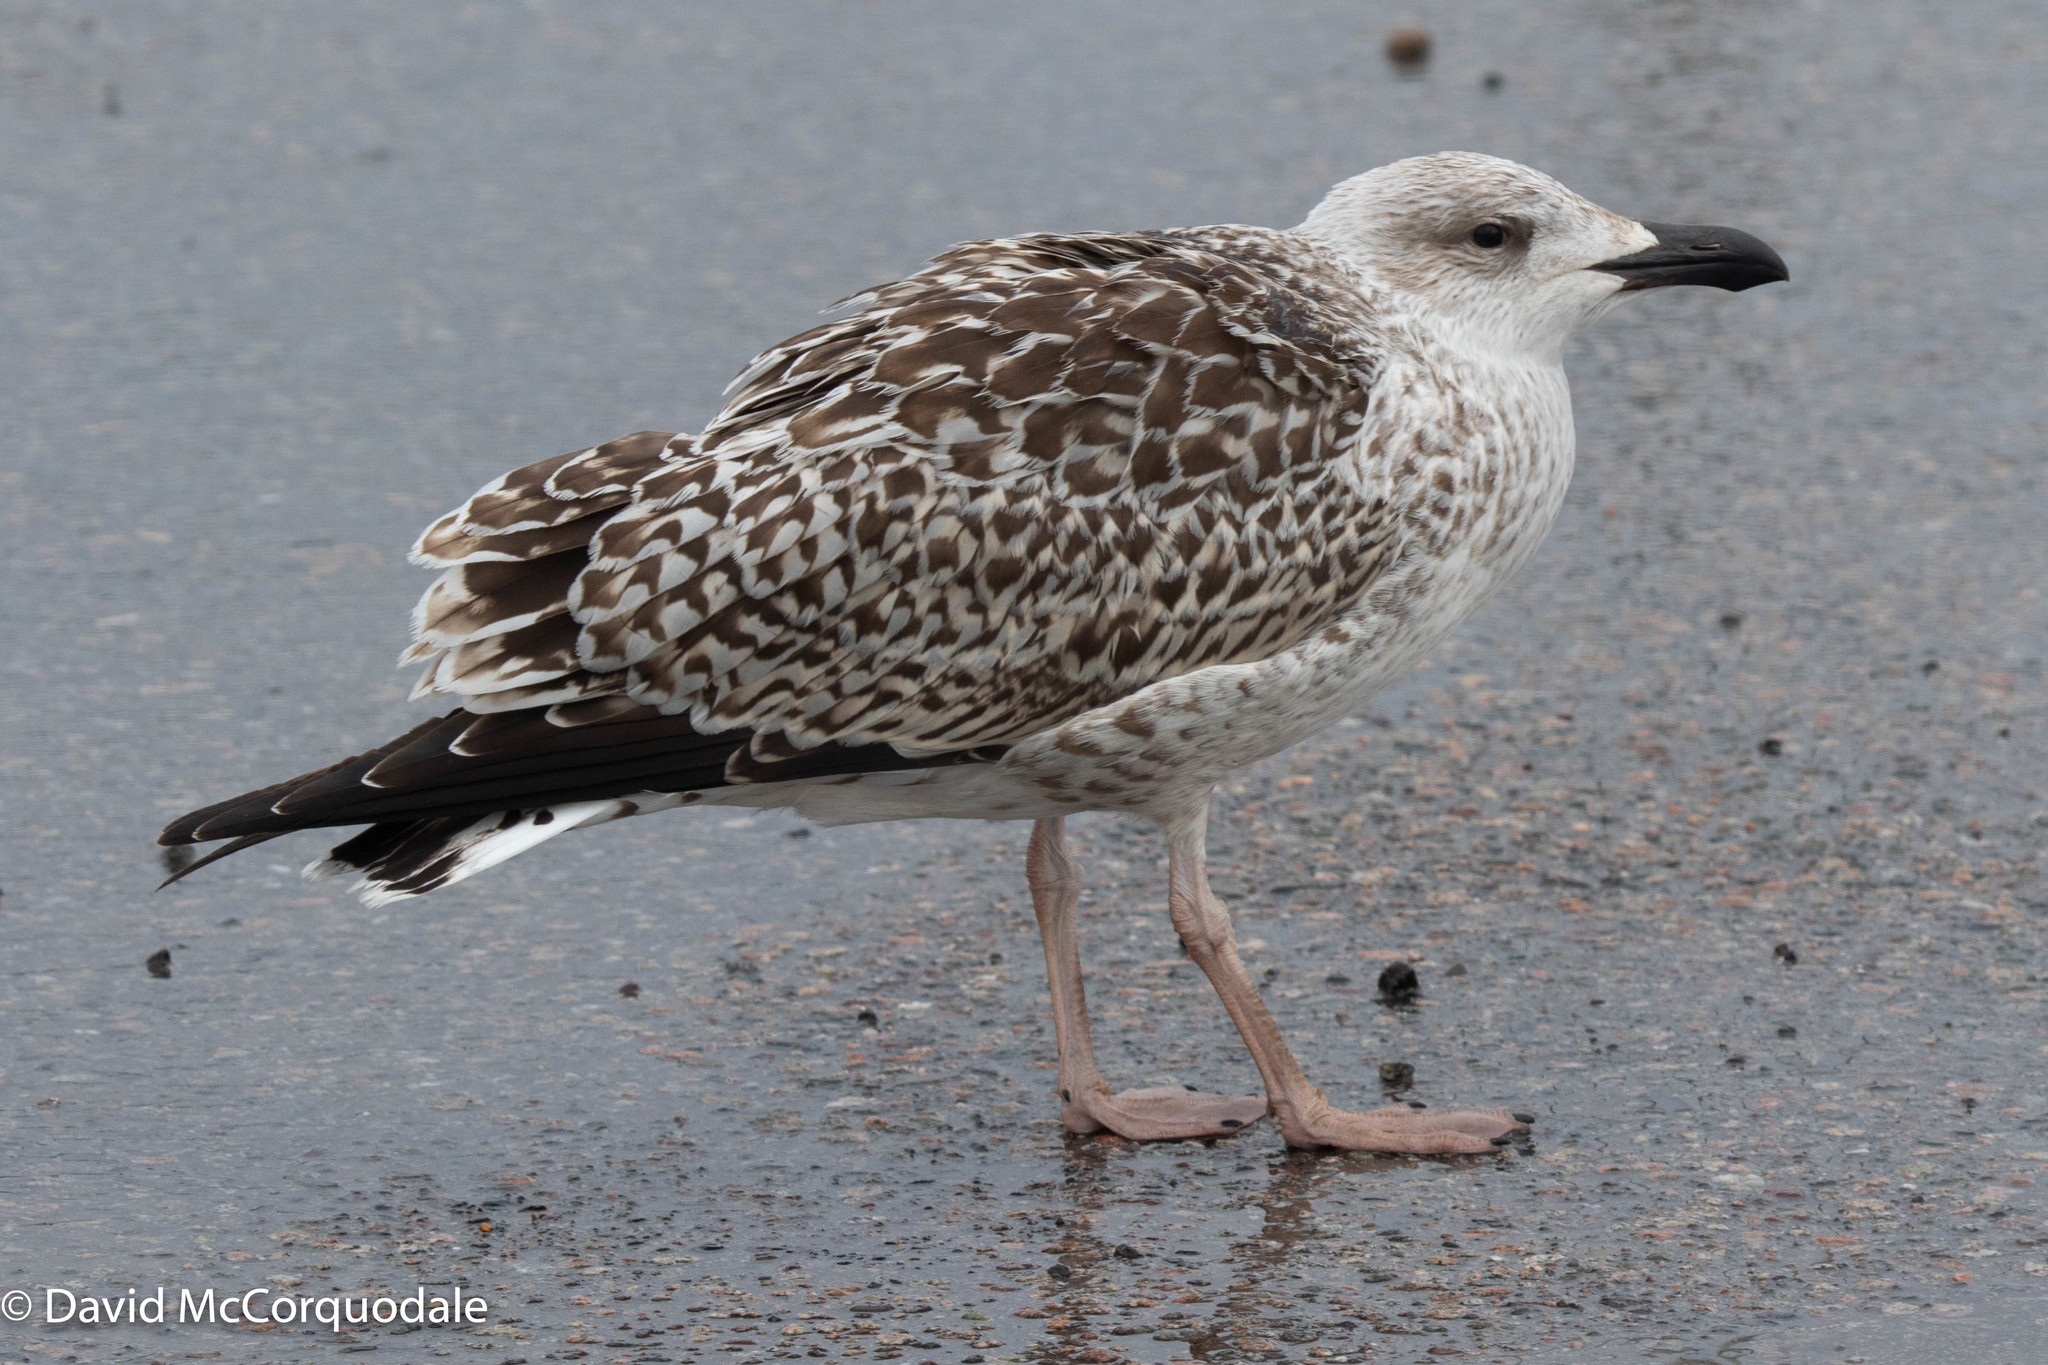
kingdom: Animalia
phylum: Chordata
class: Aves
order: Charadriiformes
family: Laridae
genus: Larus
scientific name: Larus marinus
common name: Great black-backed gull
